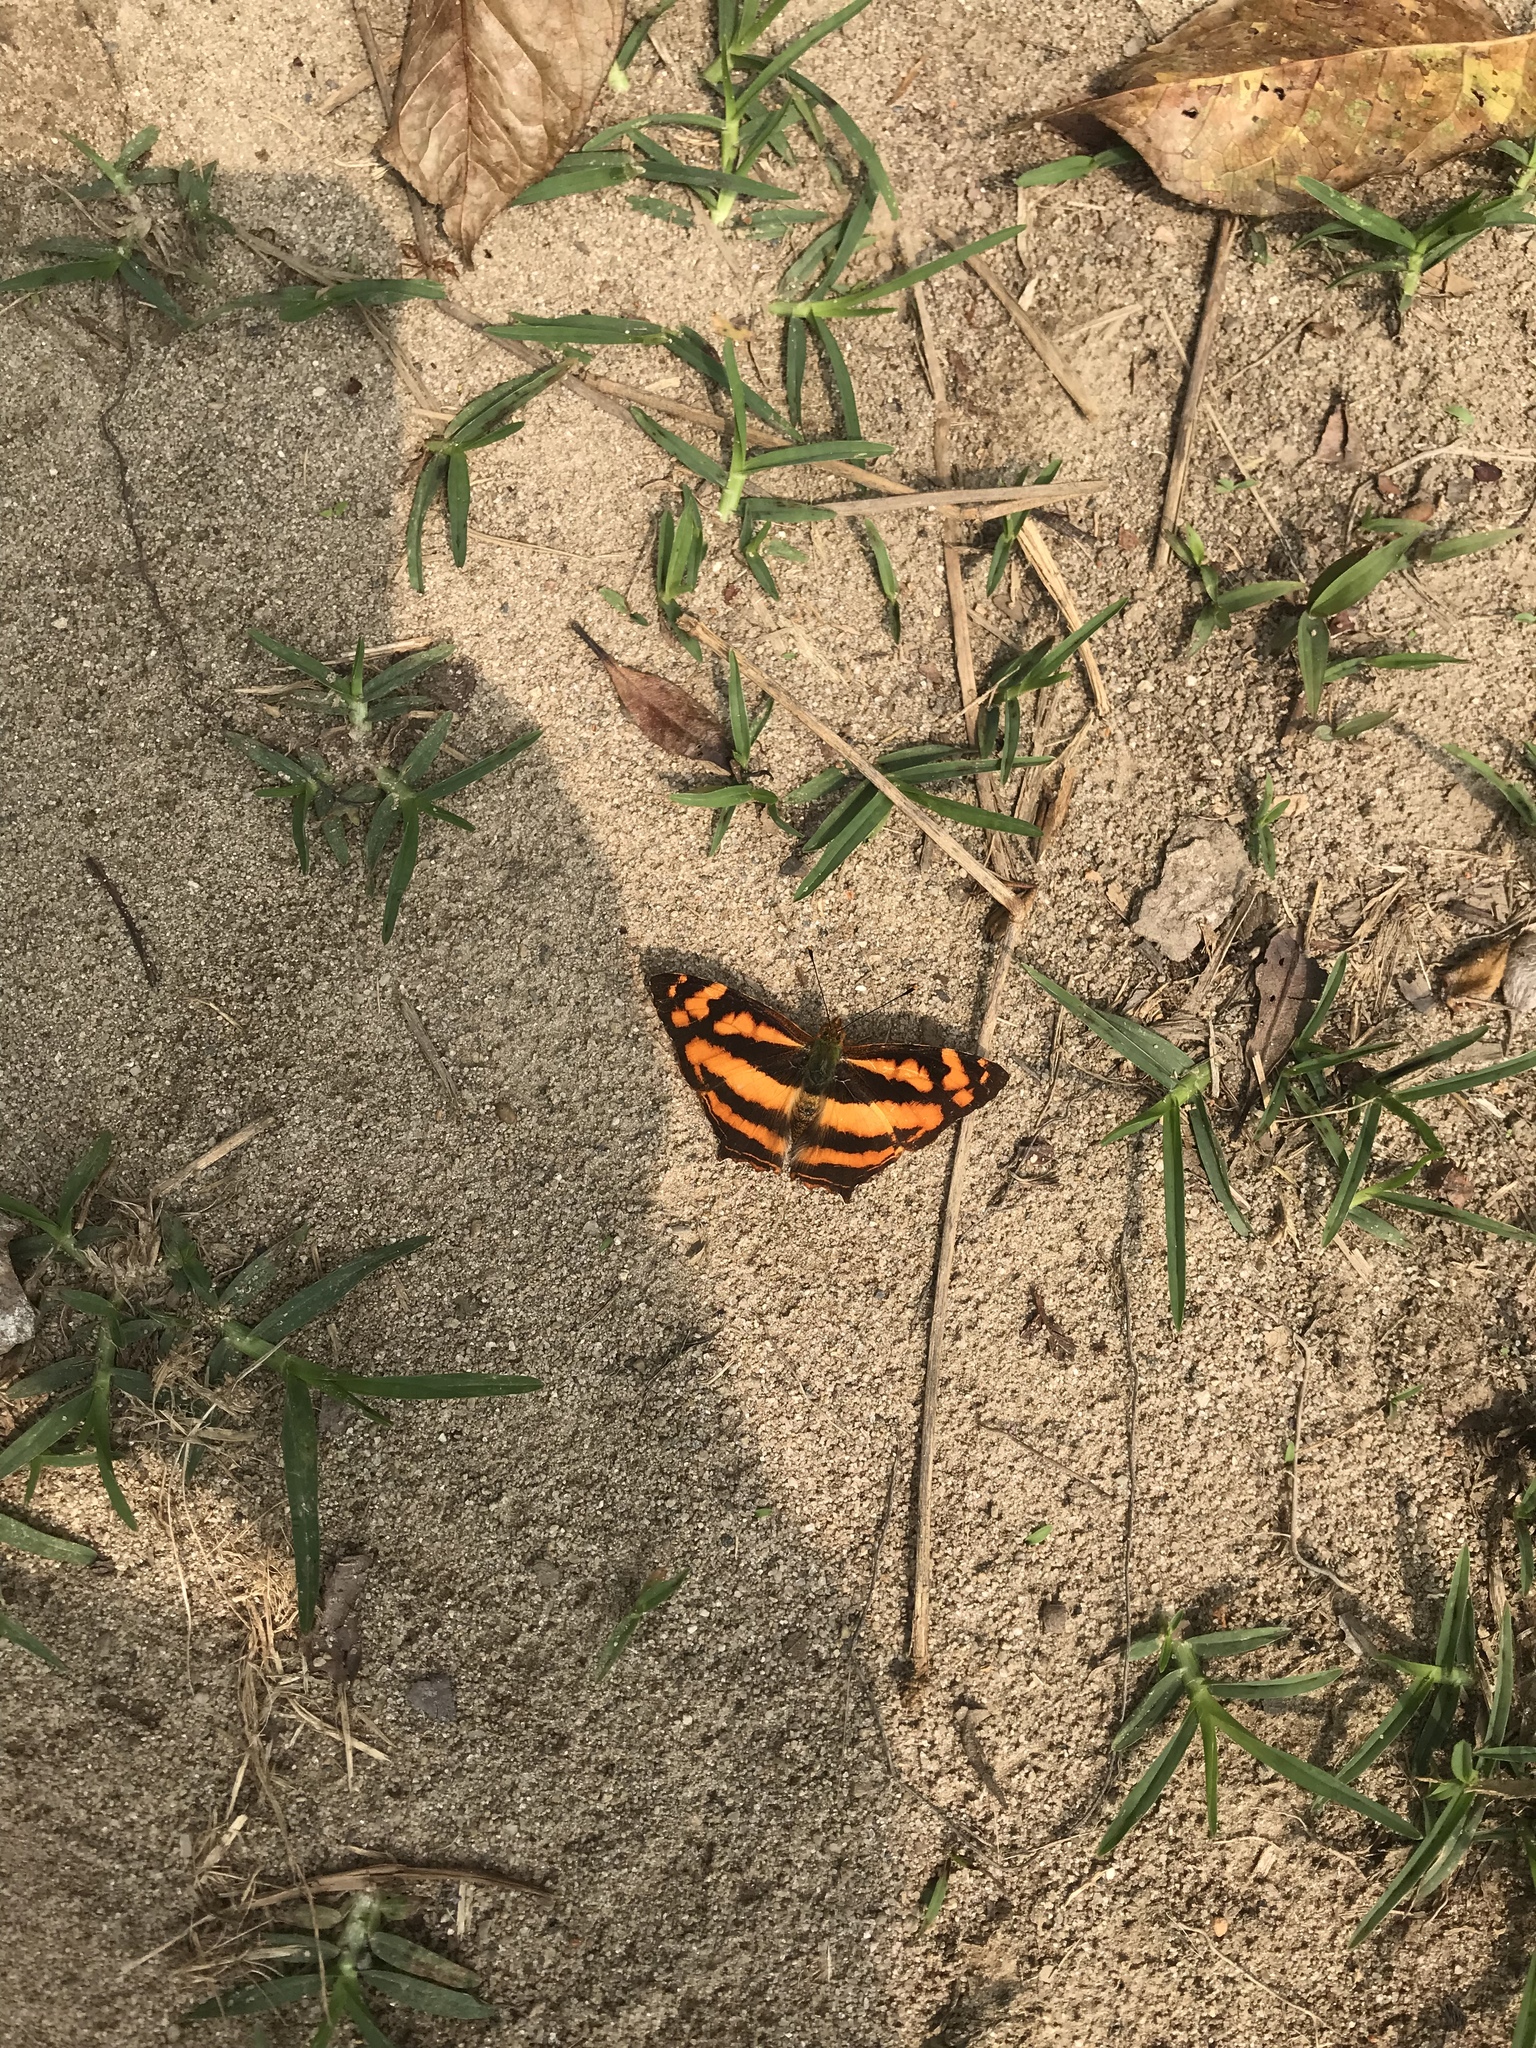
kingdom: Animalia
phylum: Arthropoda
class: Insecta
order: Lepidoptera
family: Nymphalidae
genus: Symbrenthia
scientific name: Symbrenthia hypselis
